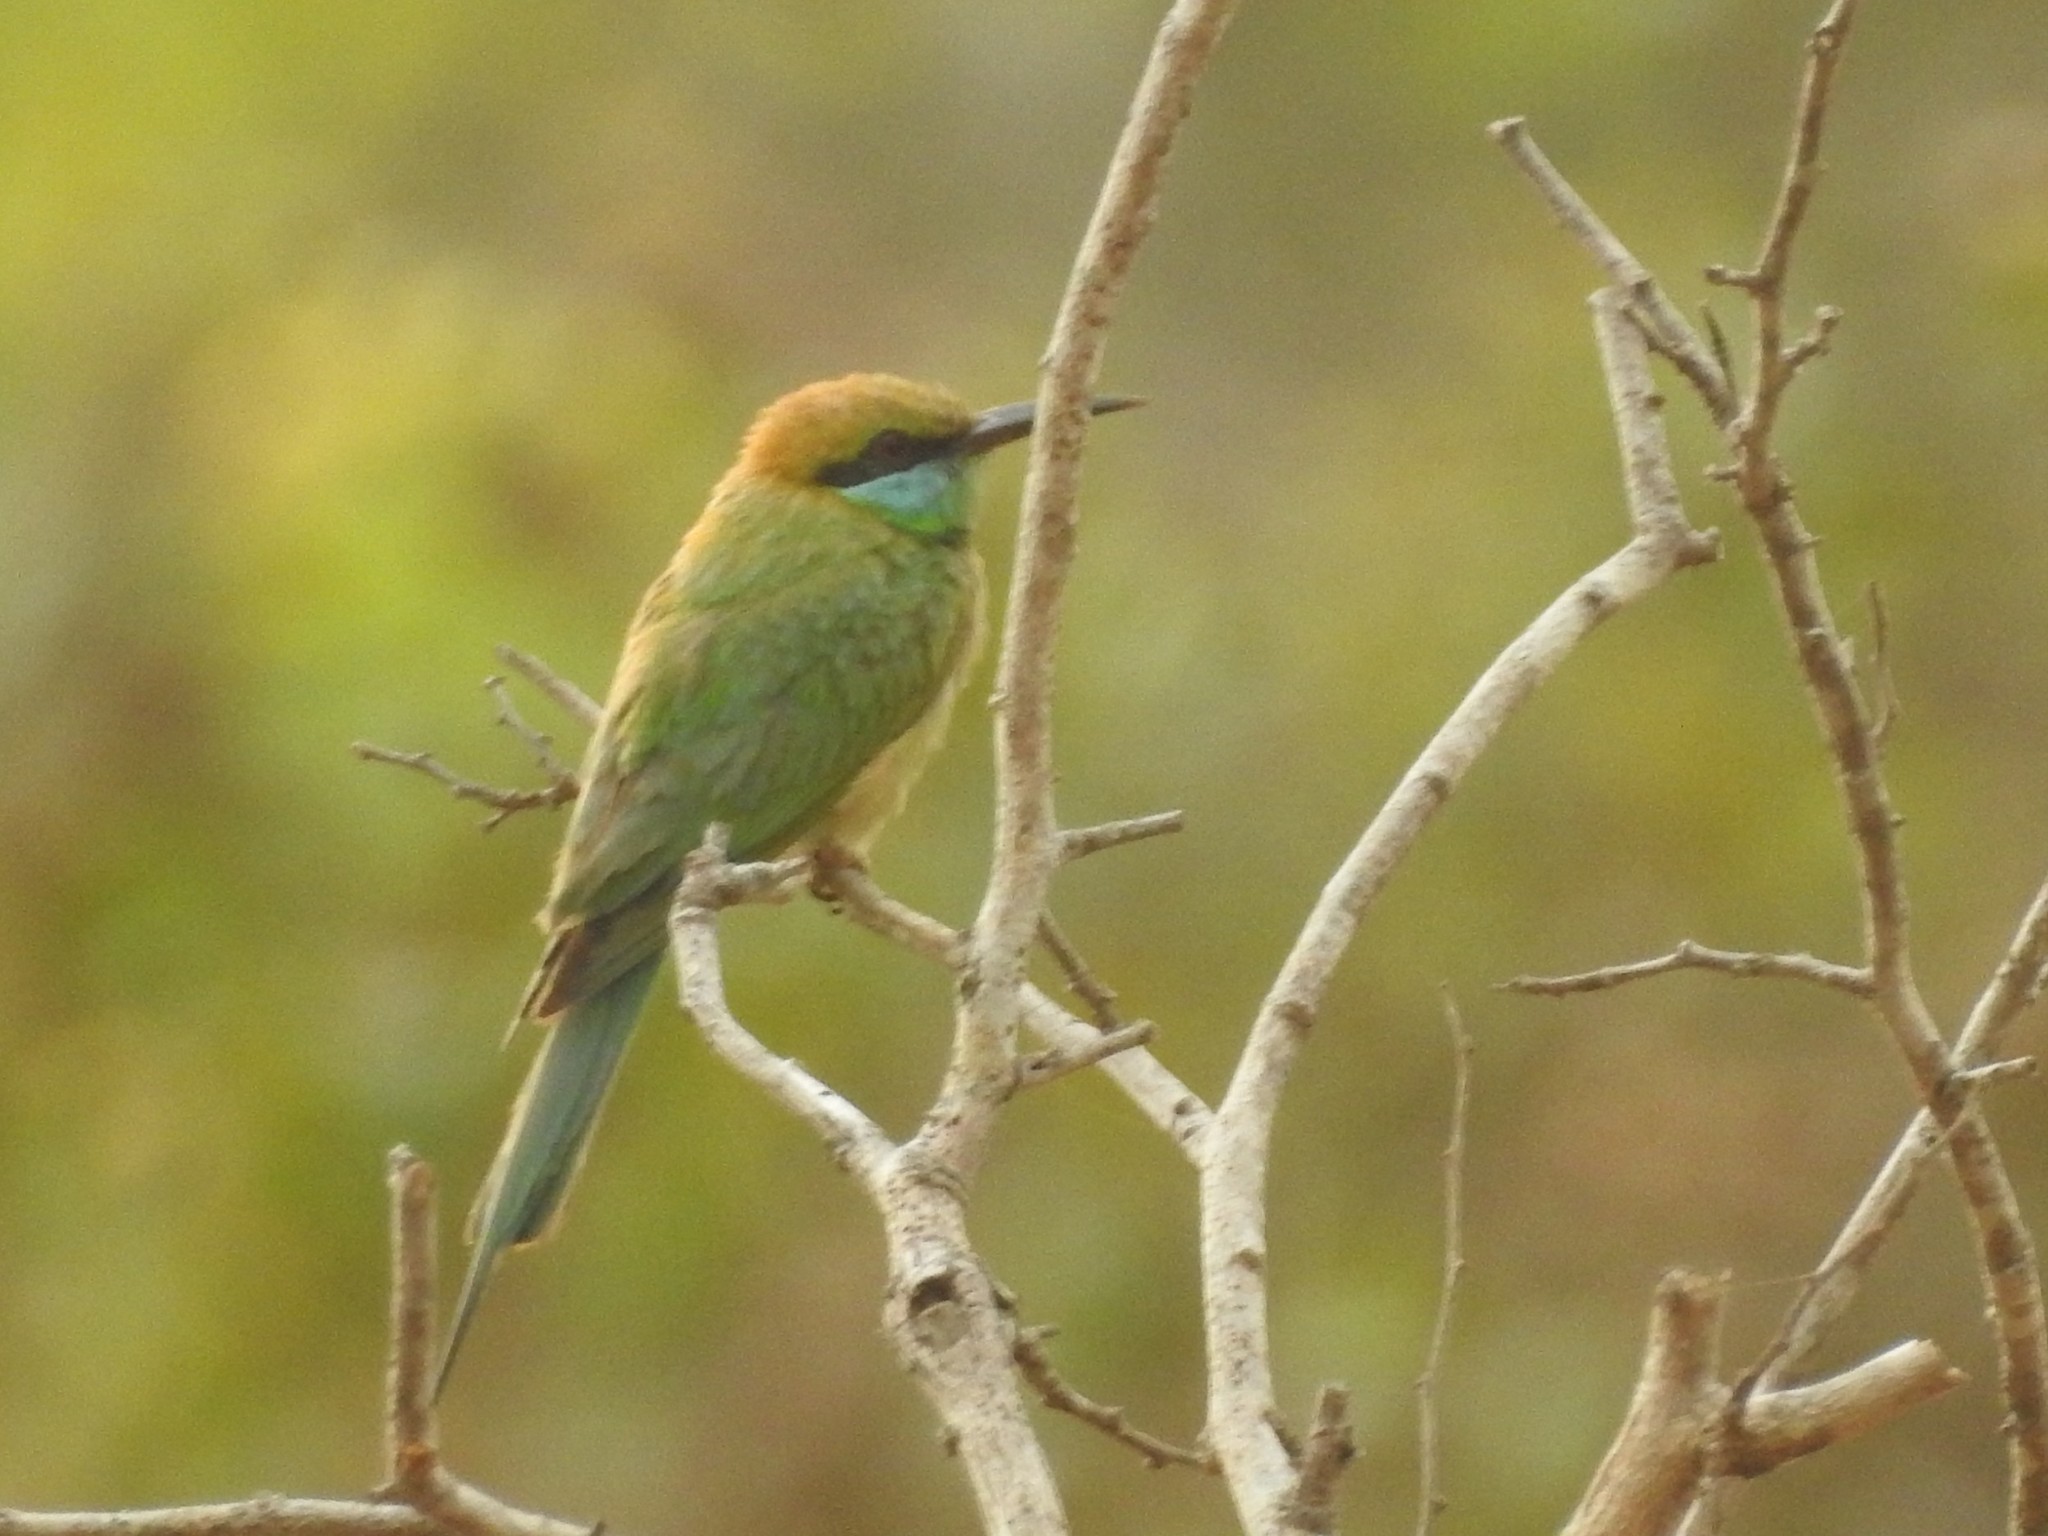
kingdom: Animalia
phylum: Chordata
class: Aves
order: Coraciiformes
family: Meropidae
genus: Merops
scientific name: Merops orientalis
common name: Green bee-eater
